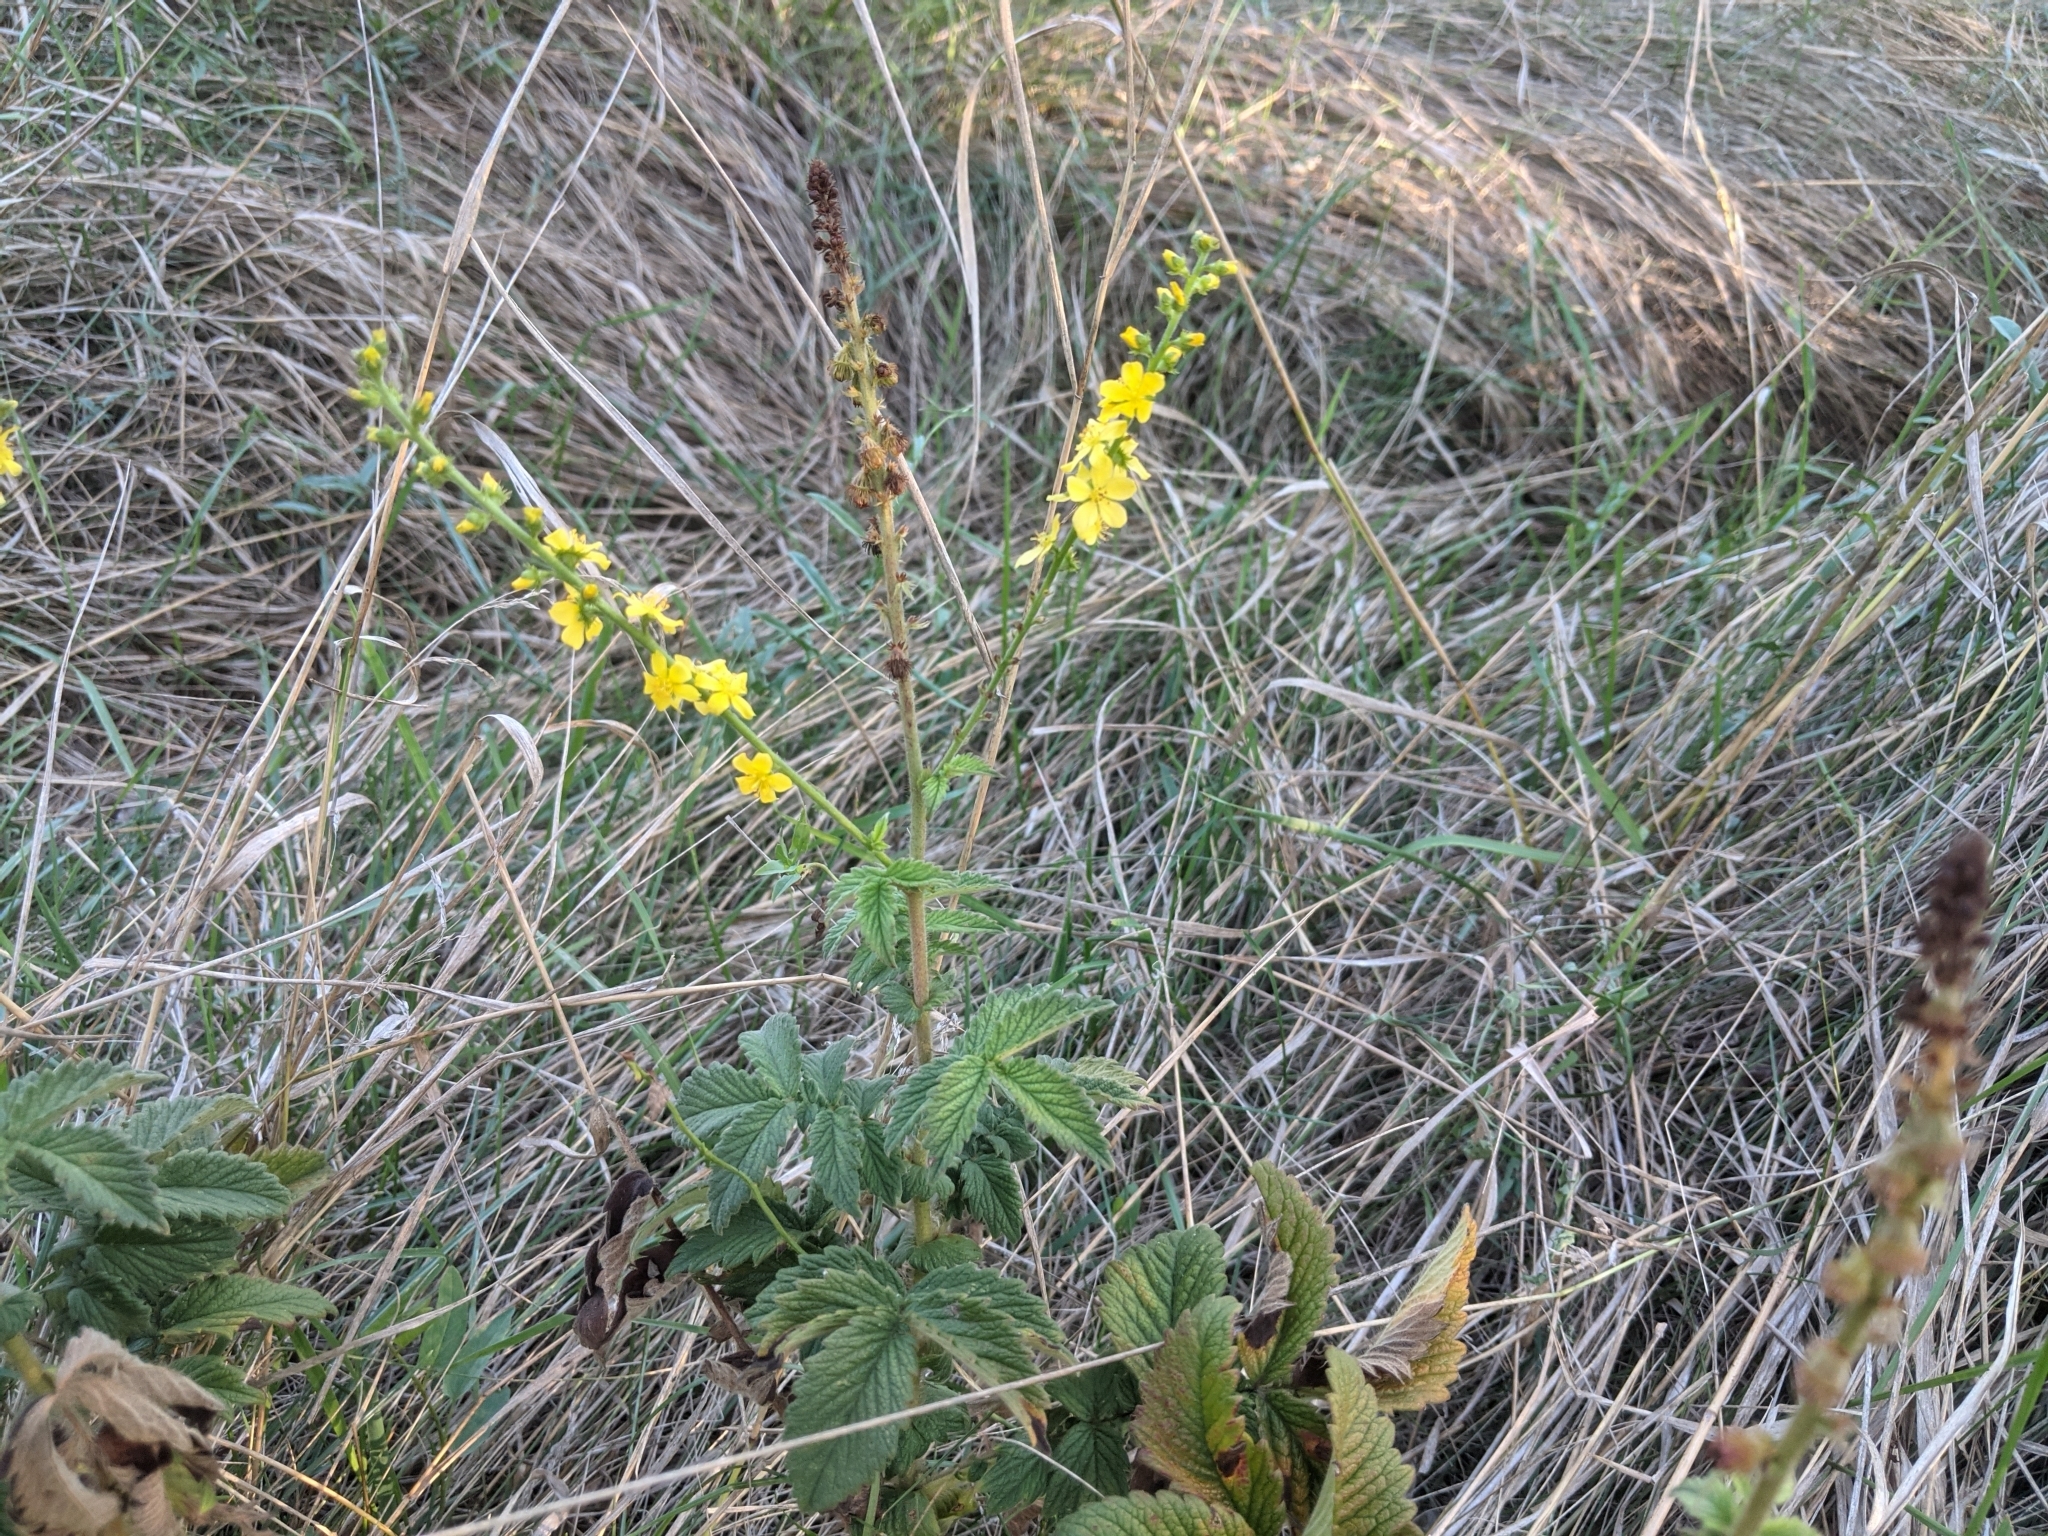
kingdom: Plantae
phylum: Tracheophyta
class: Magnoliopsida
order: Rosales
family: Rosaceae
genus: Agrimonia
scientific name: Agrimonia eupatoria
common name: Agrimony
